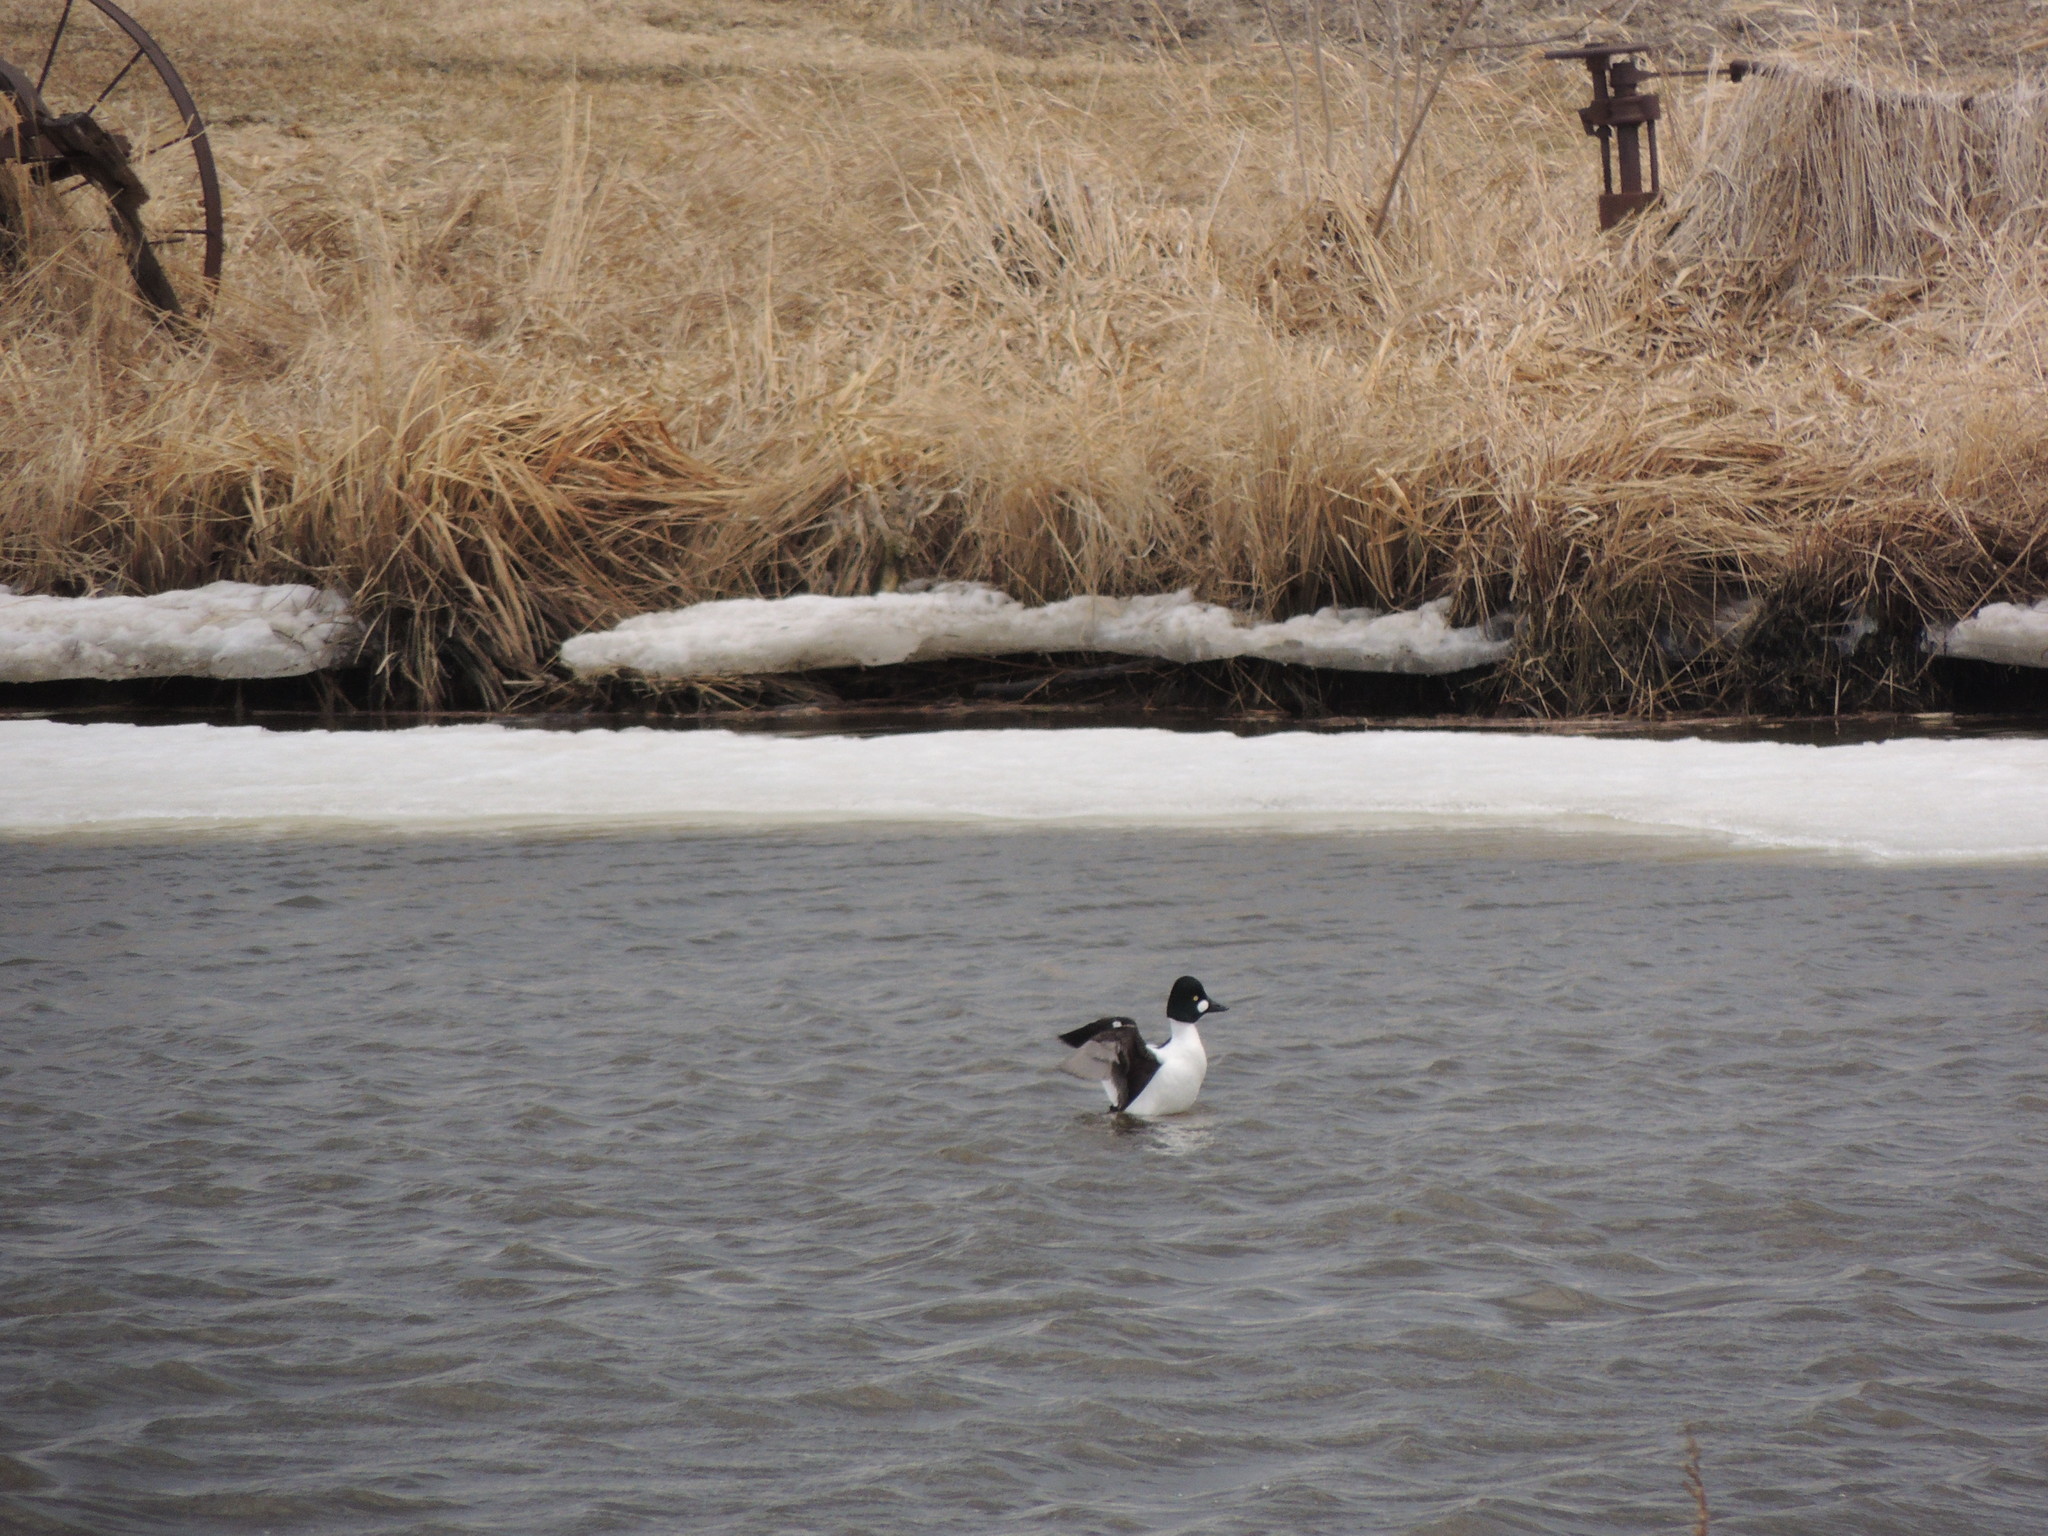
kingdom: Animalia
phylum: Chordata
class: Aves
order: Anseriformes
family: Anatidae
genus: Bucephala
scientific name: Bucephala clangula
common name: Common goldeneye
